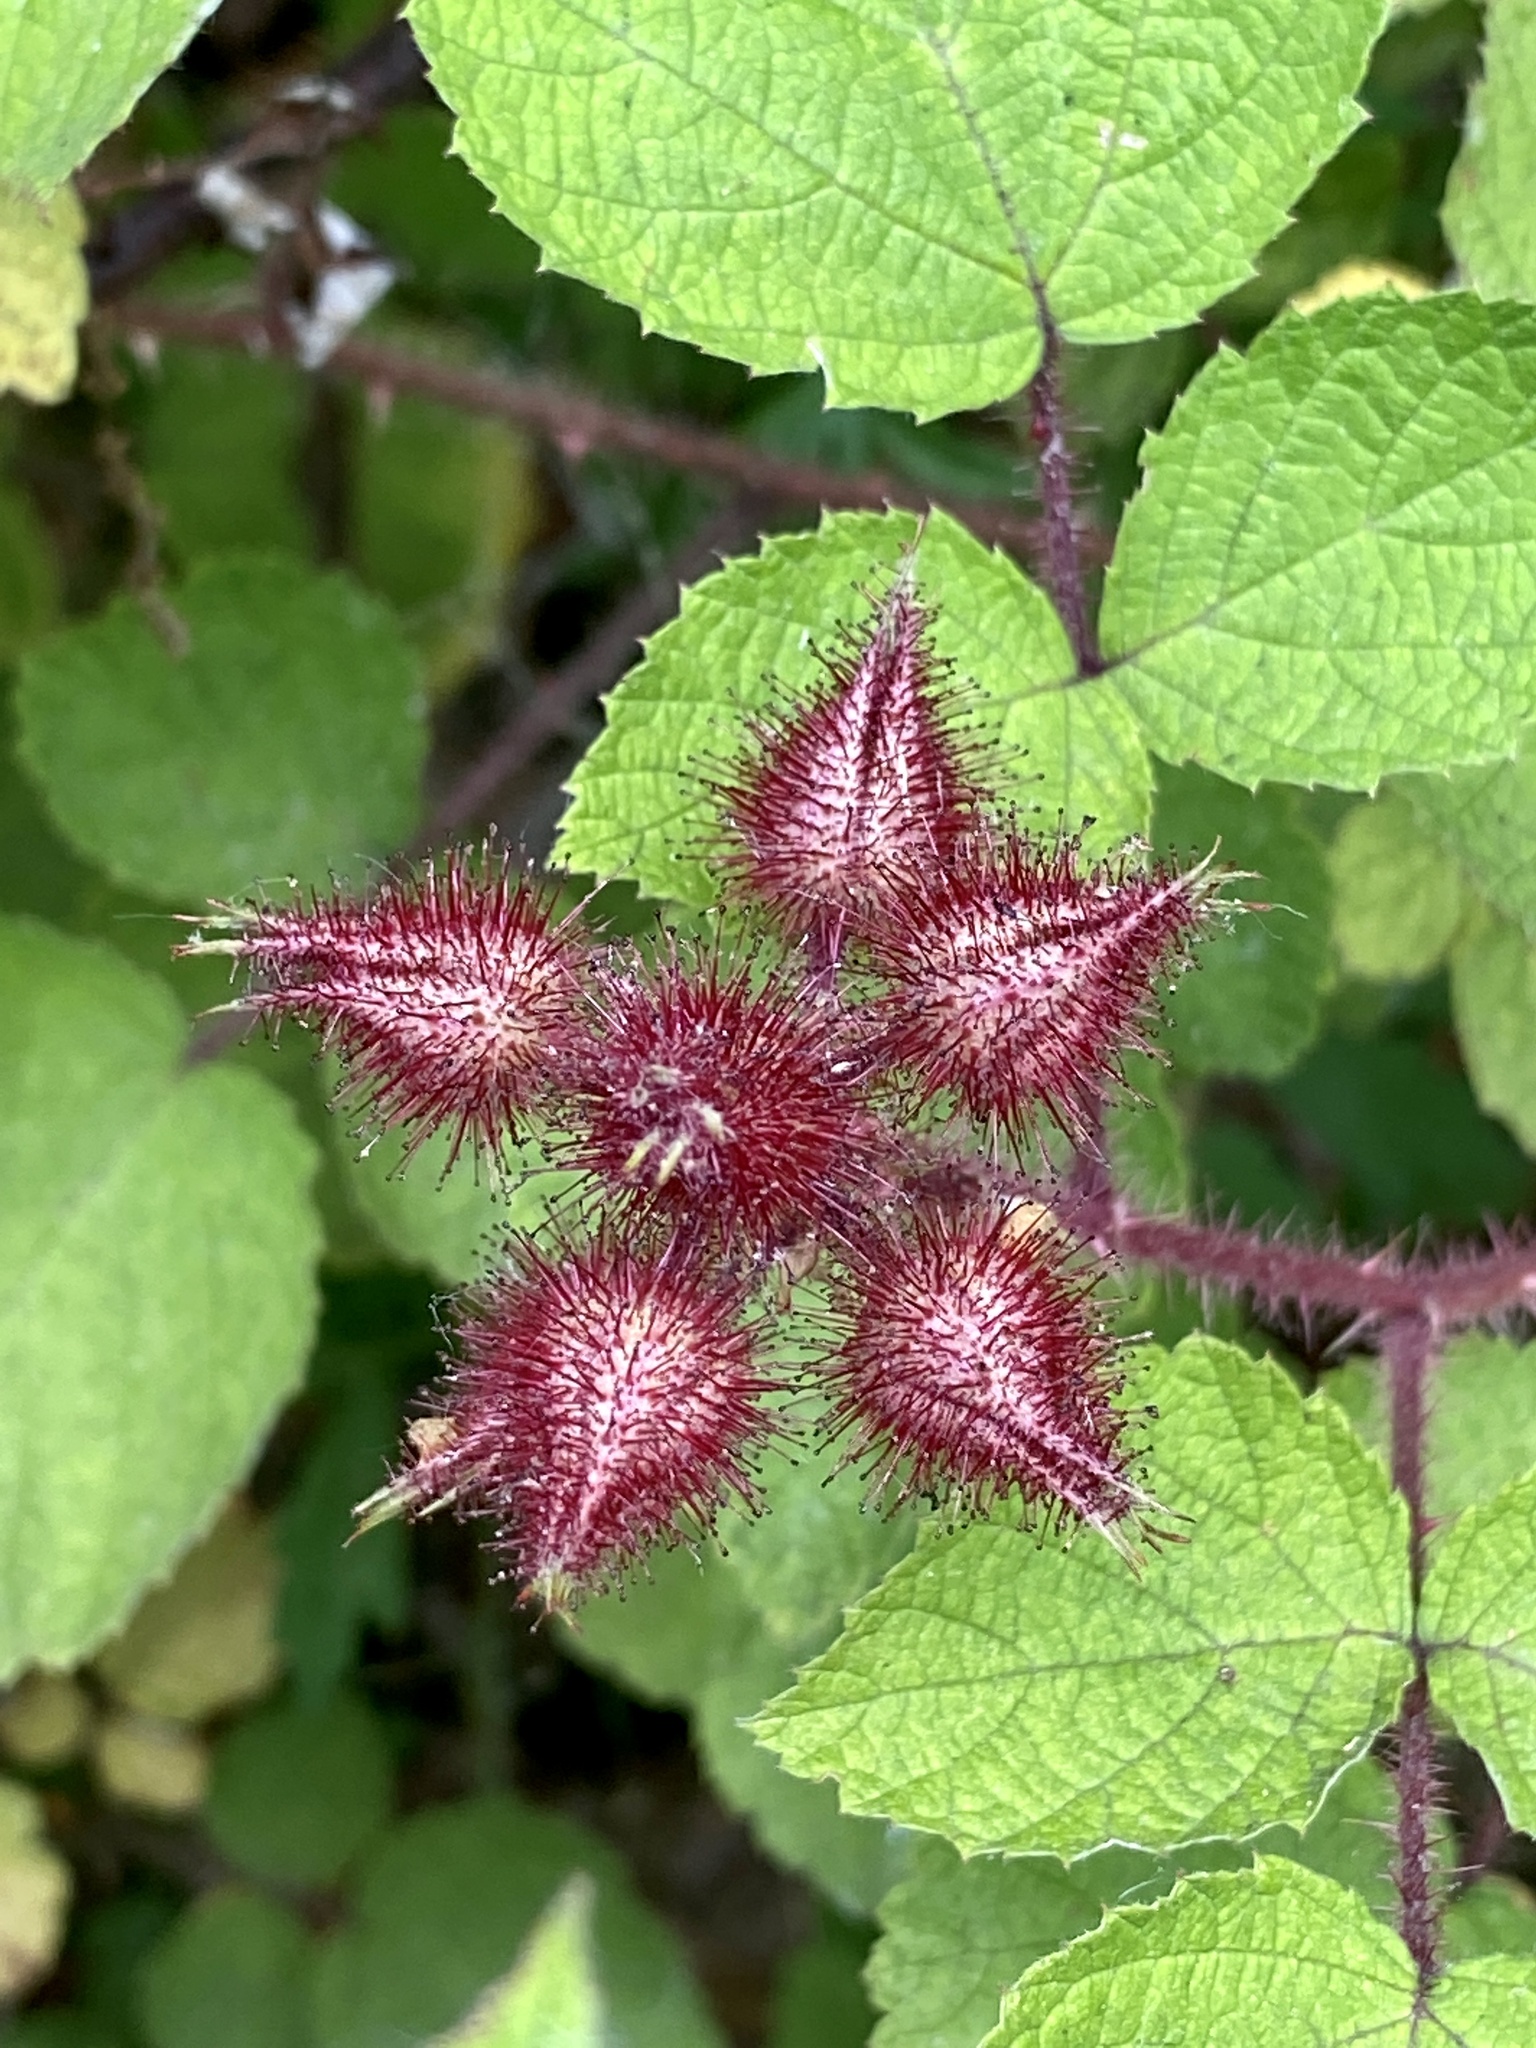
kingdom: Plantae
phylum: Tracheophyta
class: Magnoliopsida
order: Rosales
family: Rosaceae
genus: Rubus
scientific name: Rubus phoenicolasius
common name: Japanese wineberry
